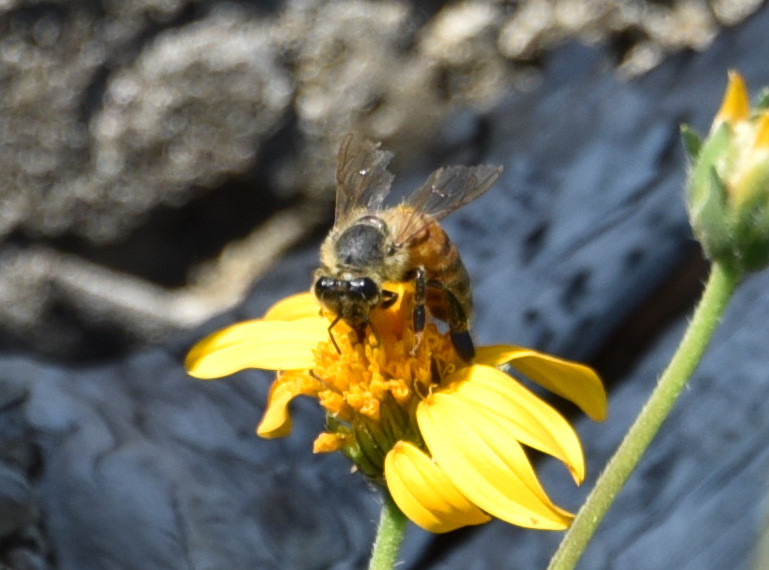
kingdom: Animalia
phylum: Arthropoda
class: Insecta
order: Hymenoptera
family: Apidae
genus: Apis
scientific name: Apis mellifera
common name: Honey bee
